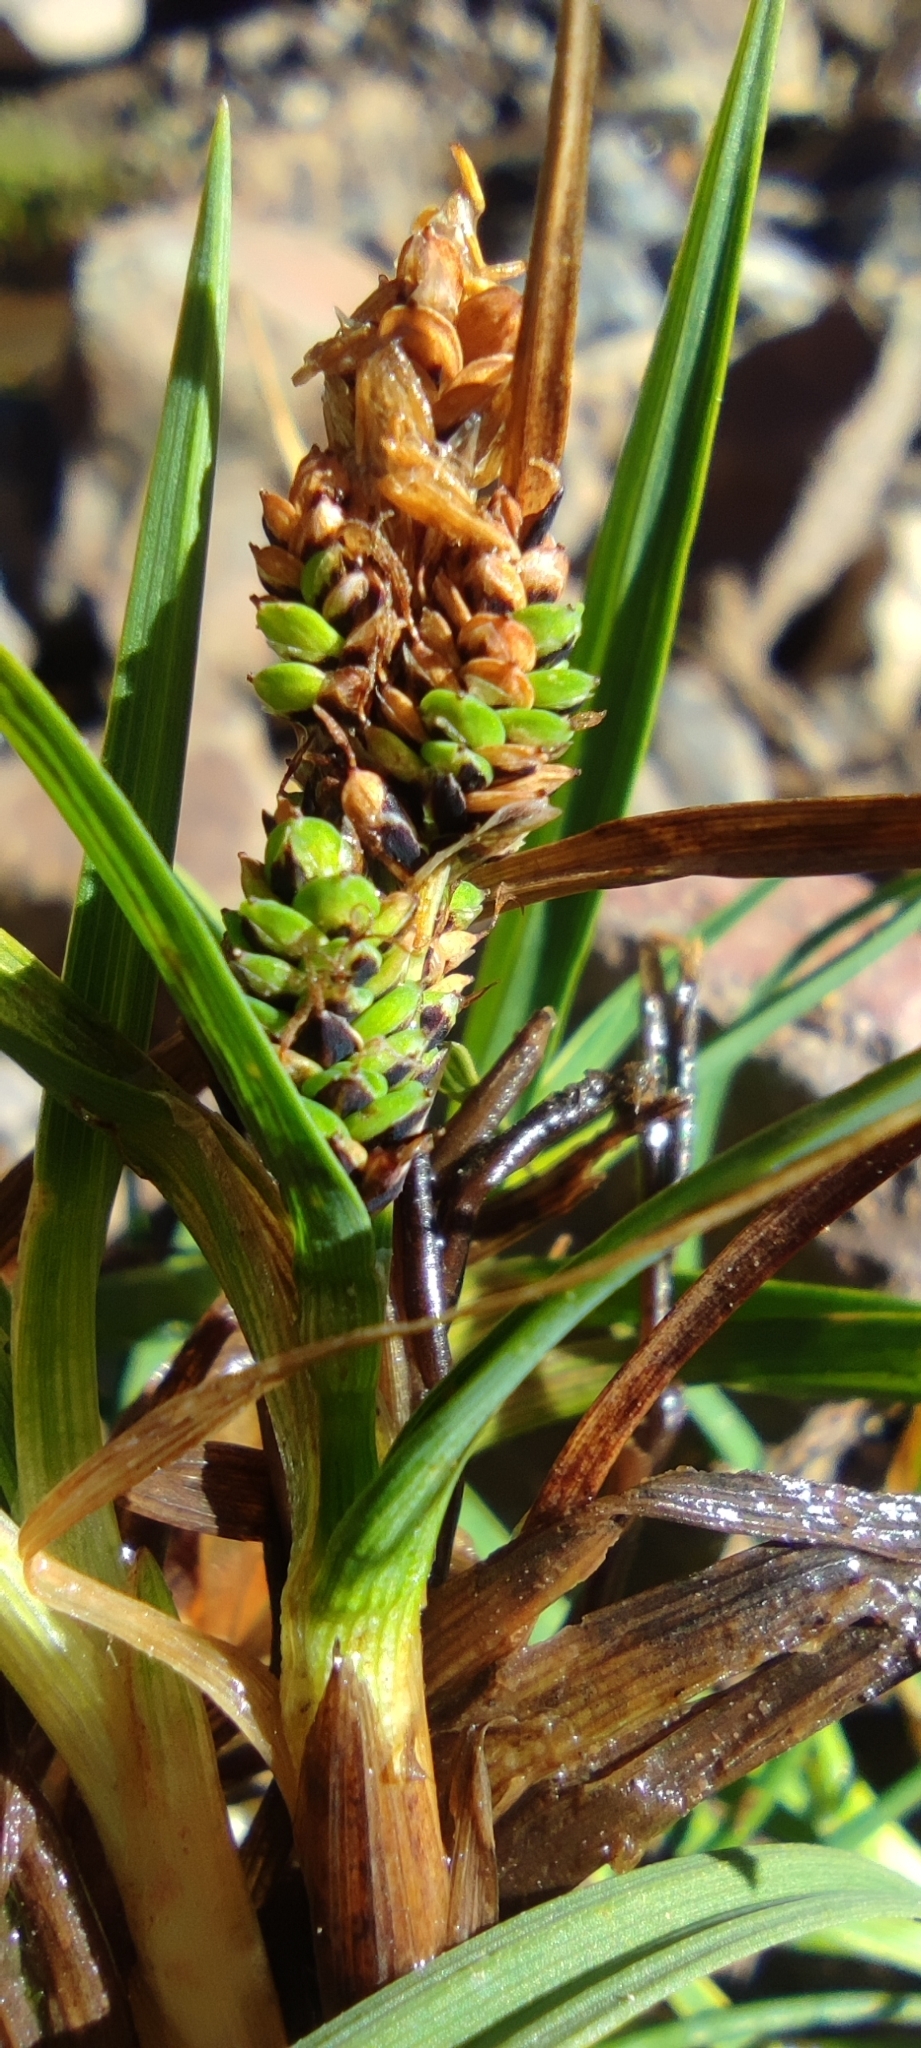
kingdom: Plantae
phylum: Tracheophyta
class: Liliopsida
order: Poales
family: Cyperaceae
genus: Carex
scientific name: Carex chillanensis
